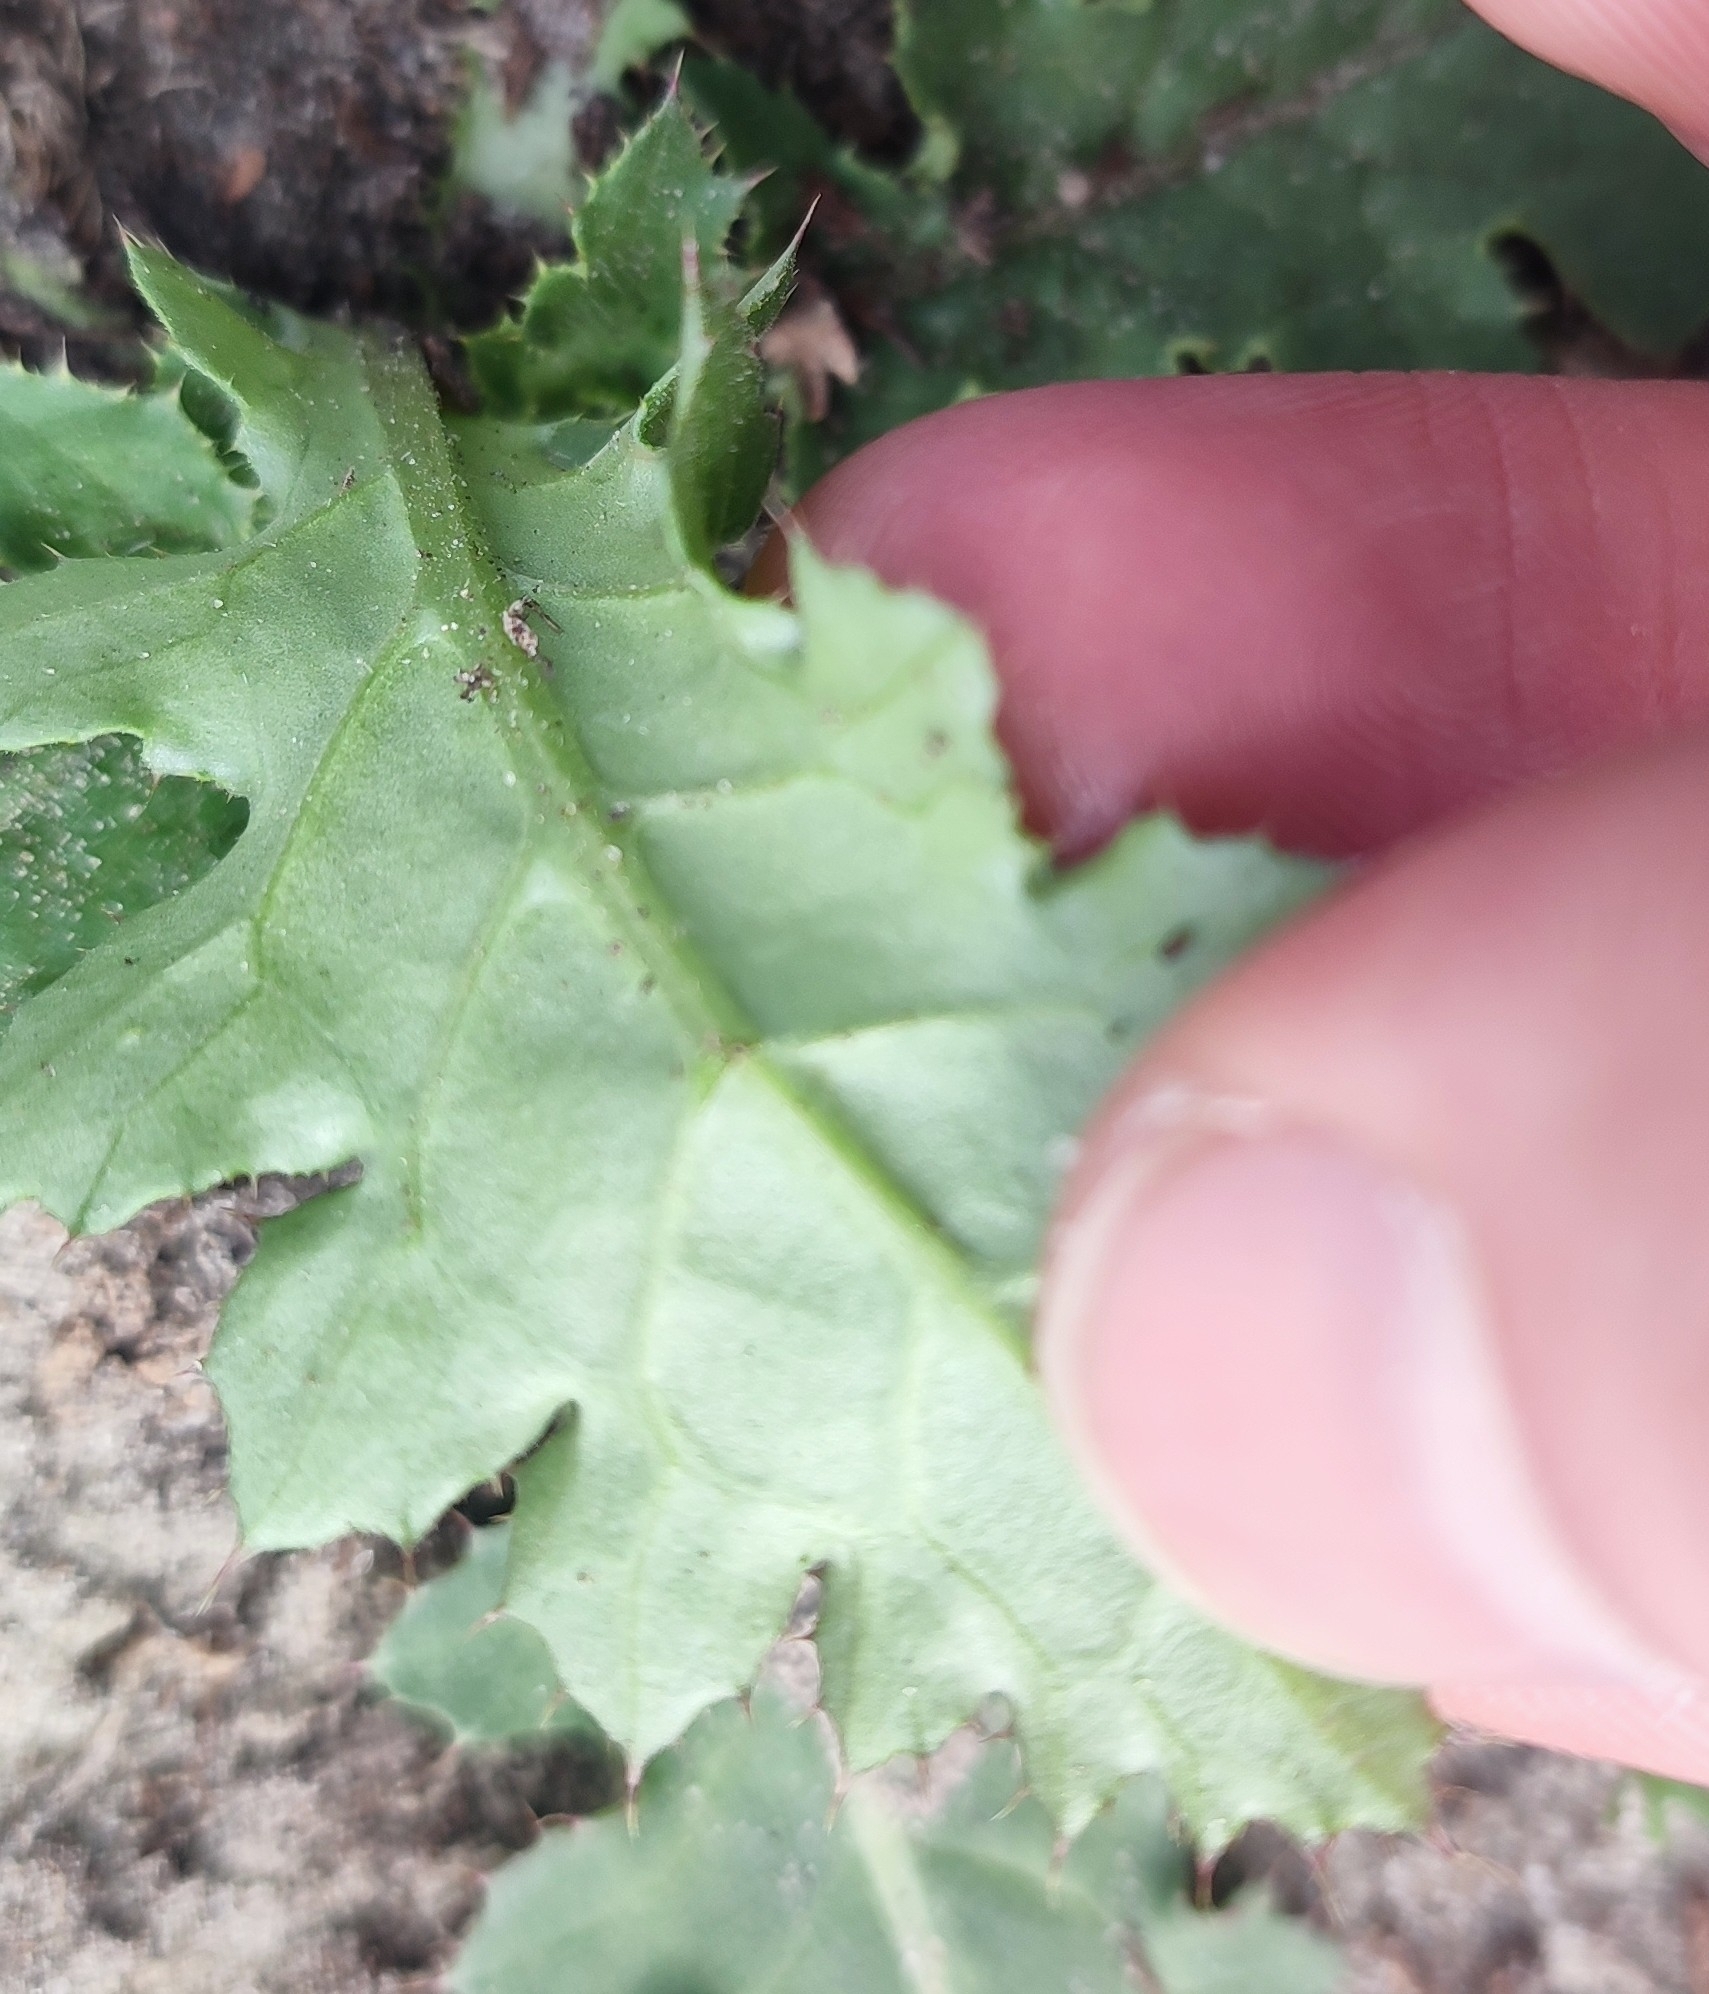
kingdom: Plantae
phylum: Tracheophyta
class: Magnoliopsida
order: Asterales
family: Asteraceae
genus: Carduus
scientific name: Carduus crispus
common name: Welted thistle
